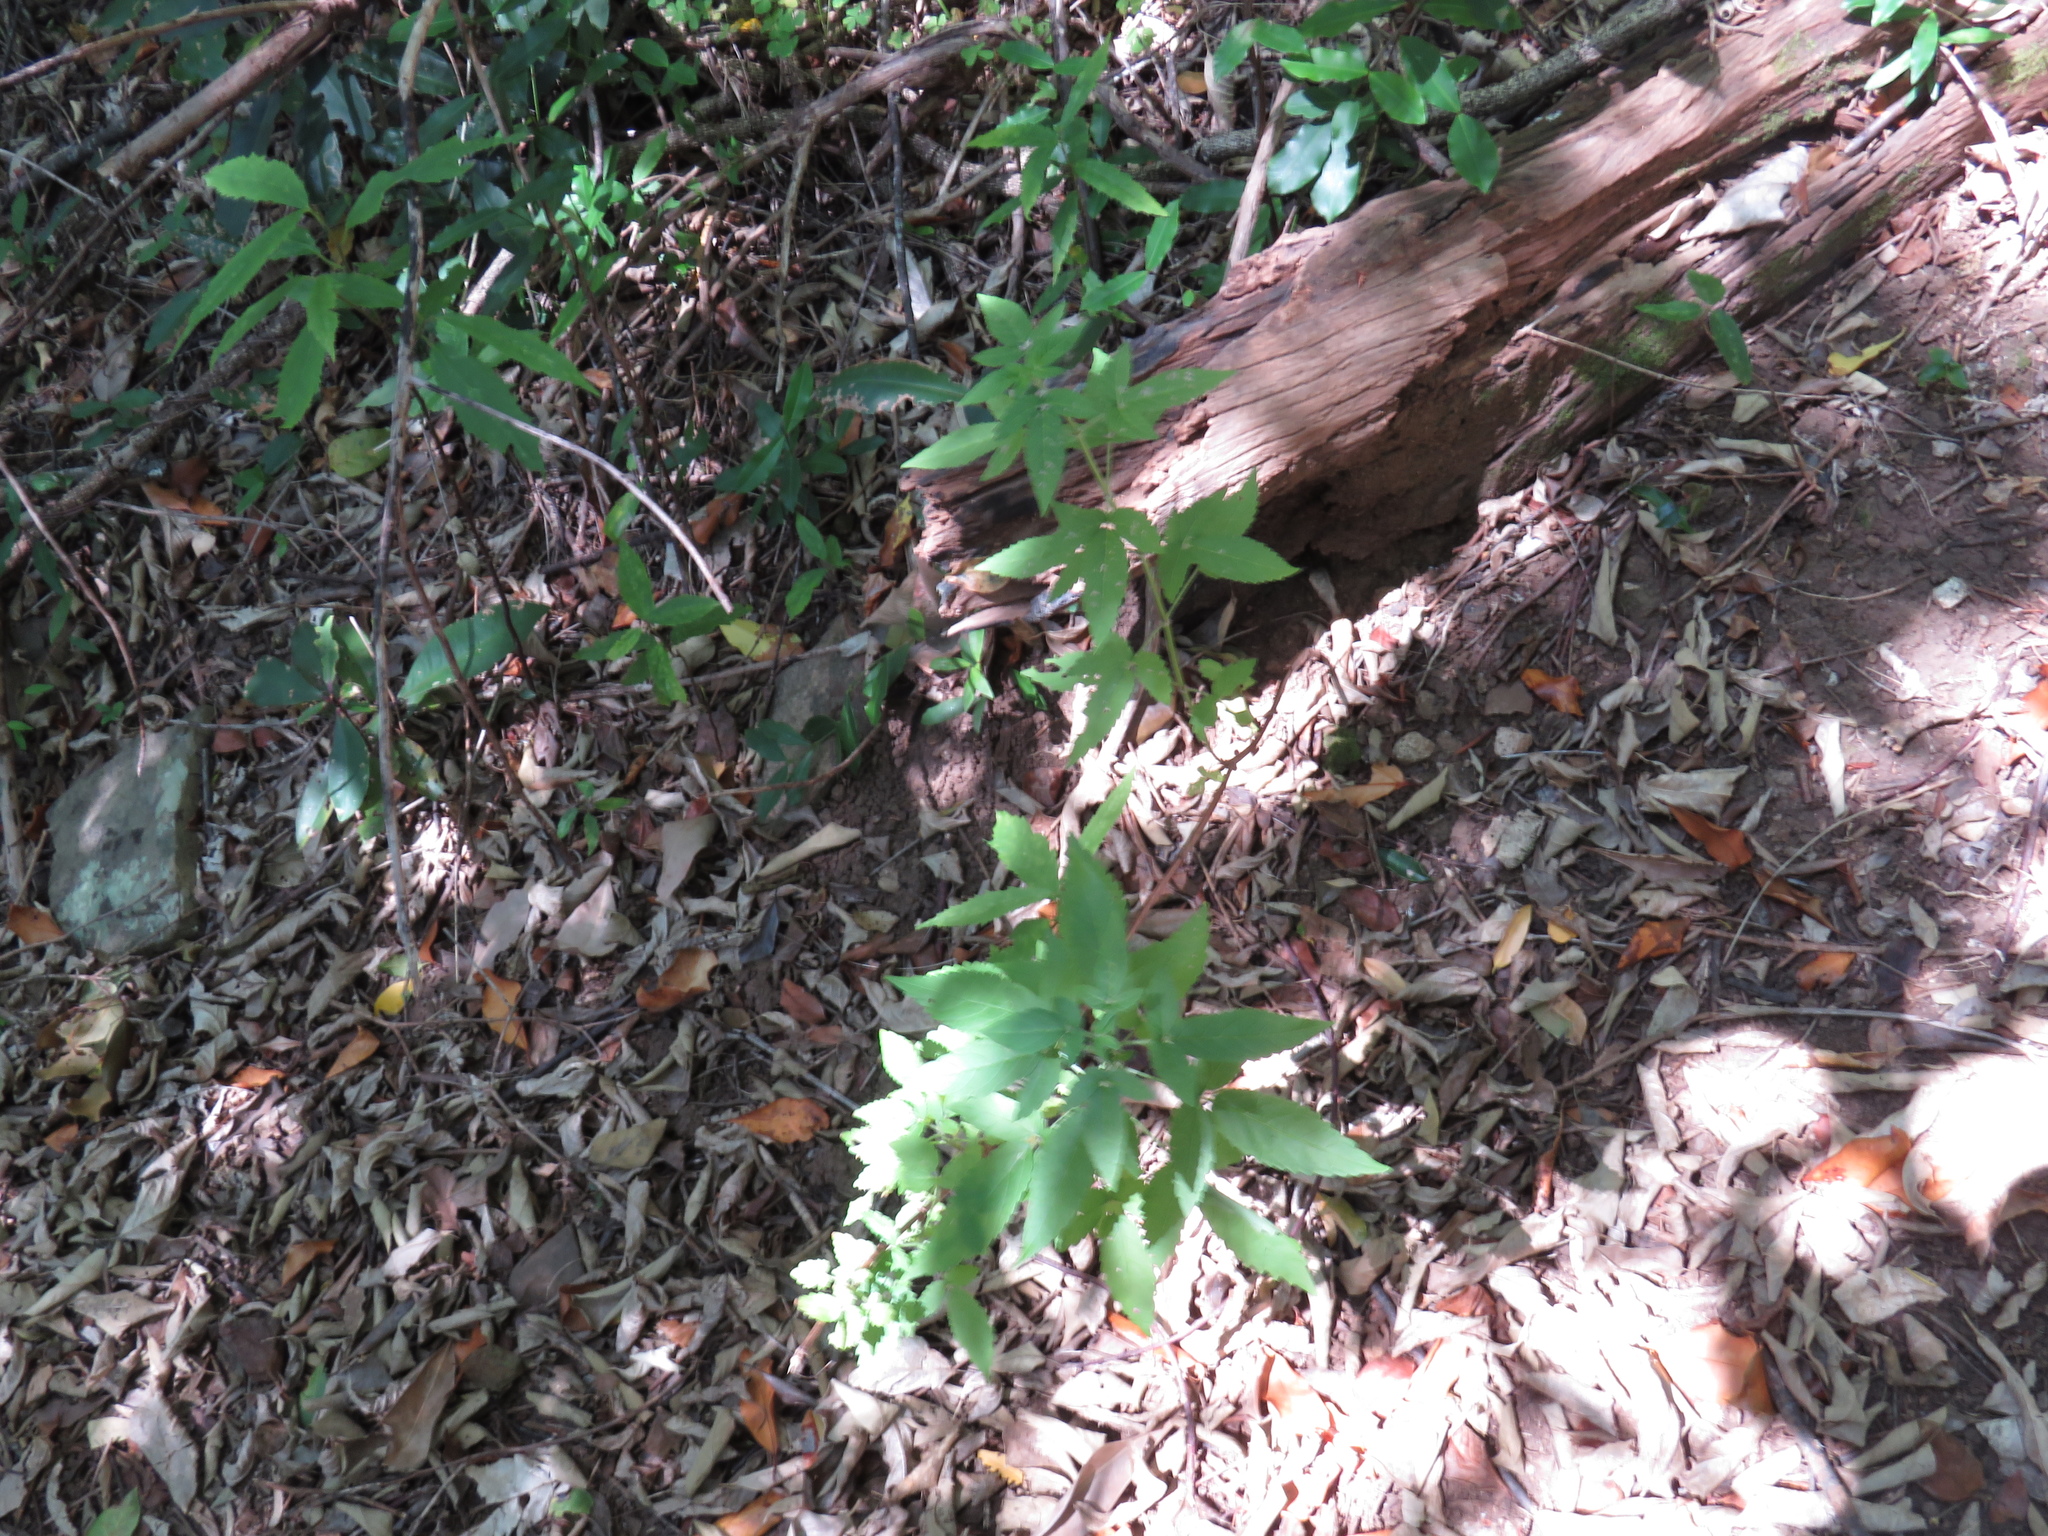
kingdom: Plantae
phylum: Tracheophyta
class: Magnoliopsida
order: Lamiales
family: Lamiaceae
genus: Cedronella
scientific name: Cedronella canariensis
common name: Canary islands balm
